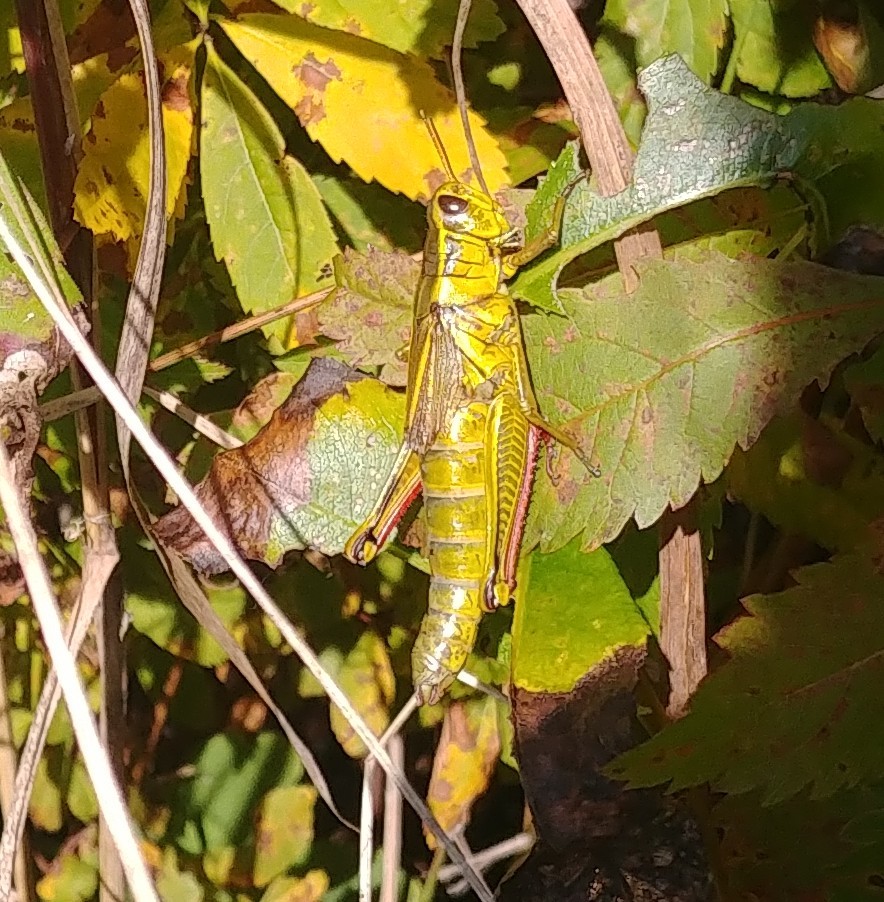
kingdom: Animalia
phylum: Arthropoda
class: Insecta
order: Orthoptera
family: Acrididae
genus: Melanoplus
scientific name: Melanoplus bivittatus
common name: Two-striped grasshopper
